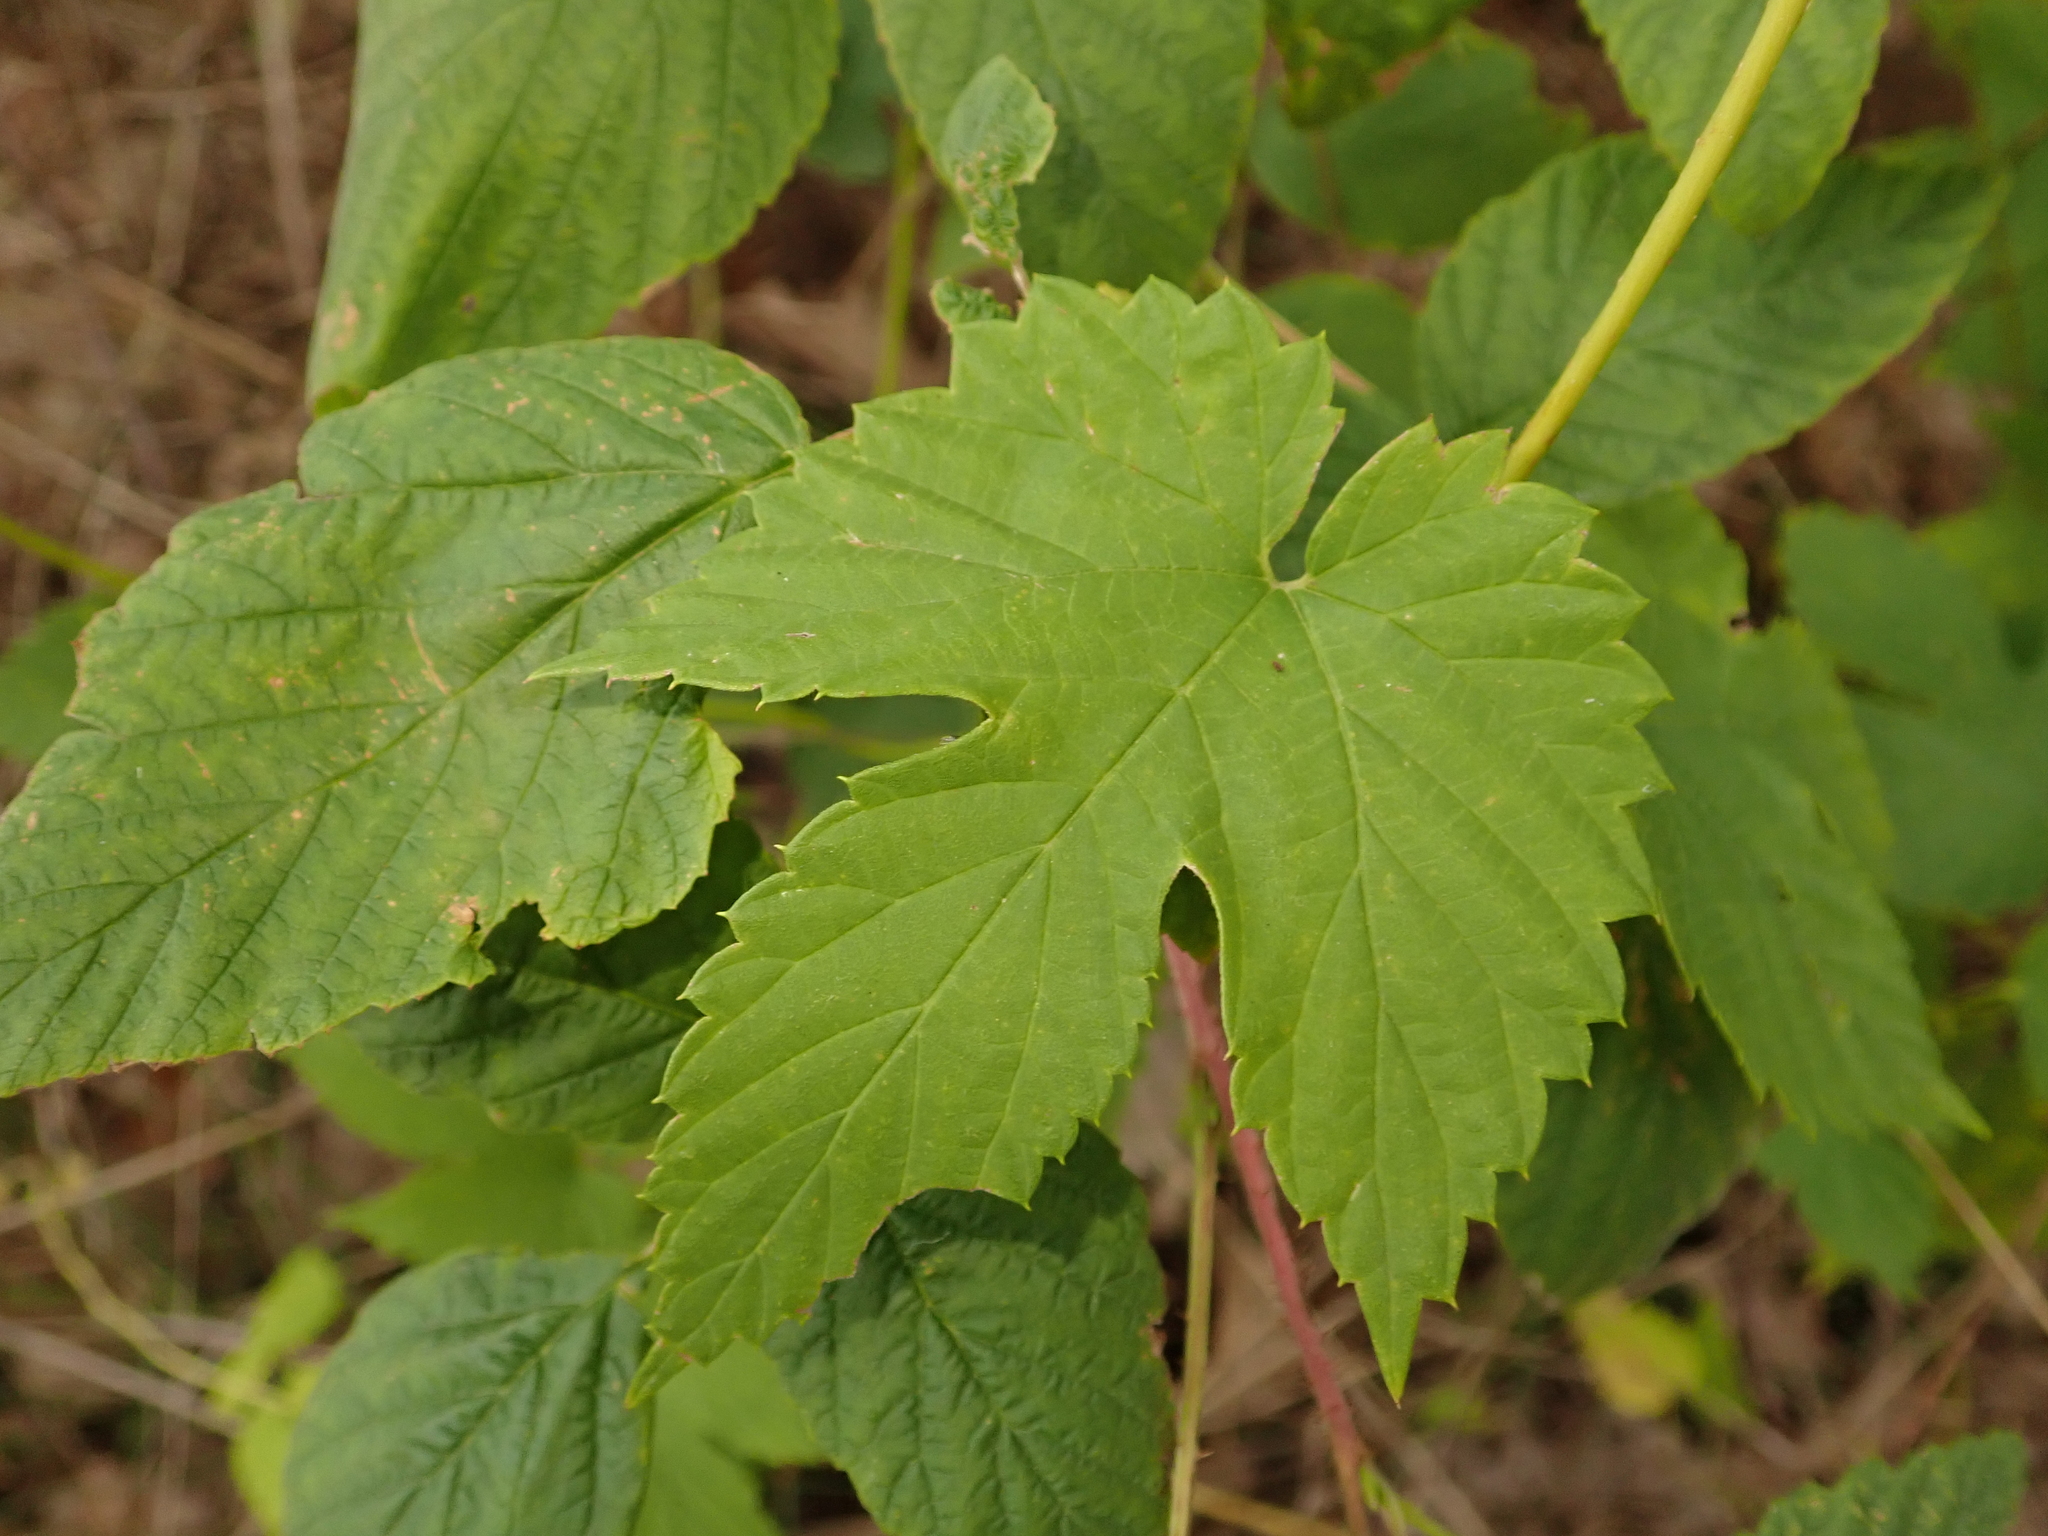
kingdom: Plantae
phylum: Tracheophyta
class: Magnoliopsida
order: Rosales
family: Cannabaceae
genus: Humulus
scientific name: Humulus lupulus
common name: Hop
